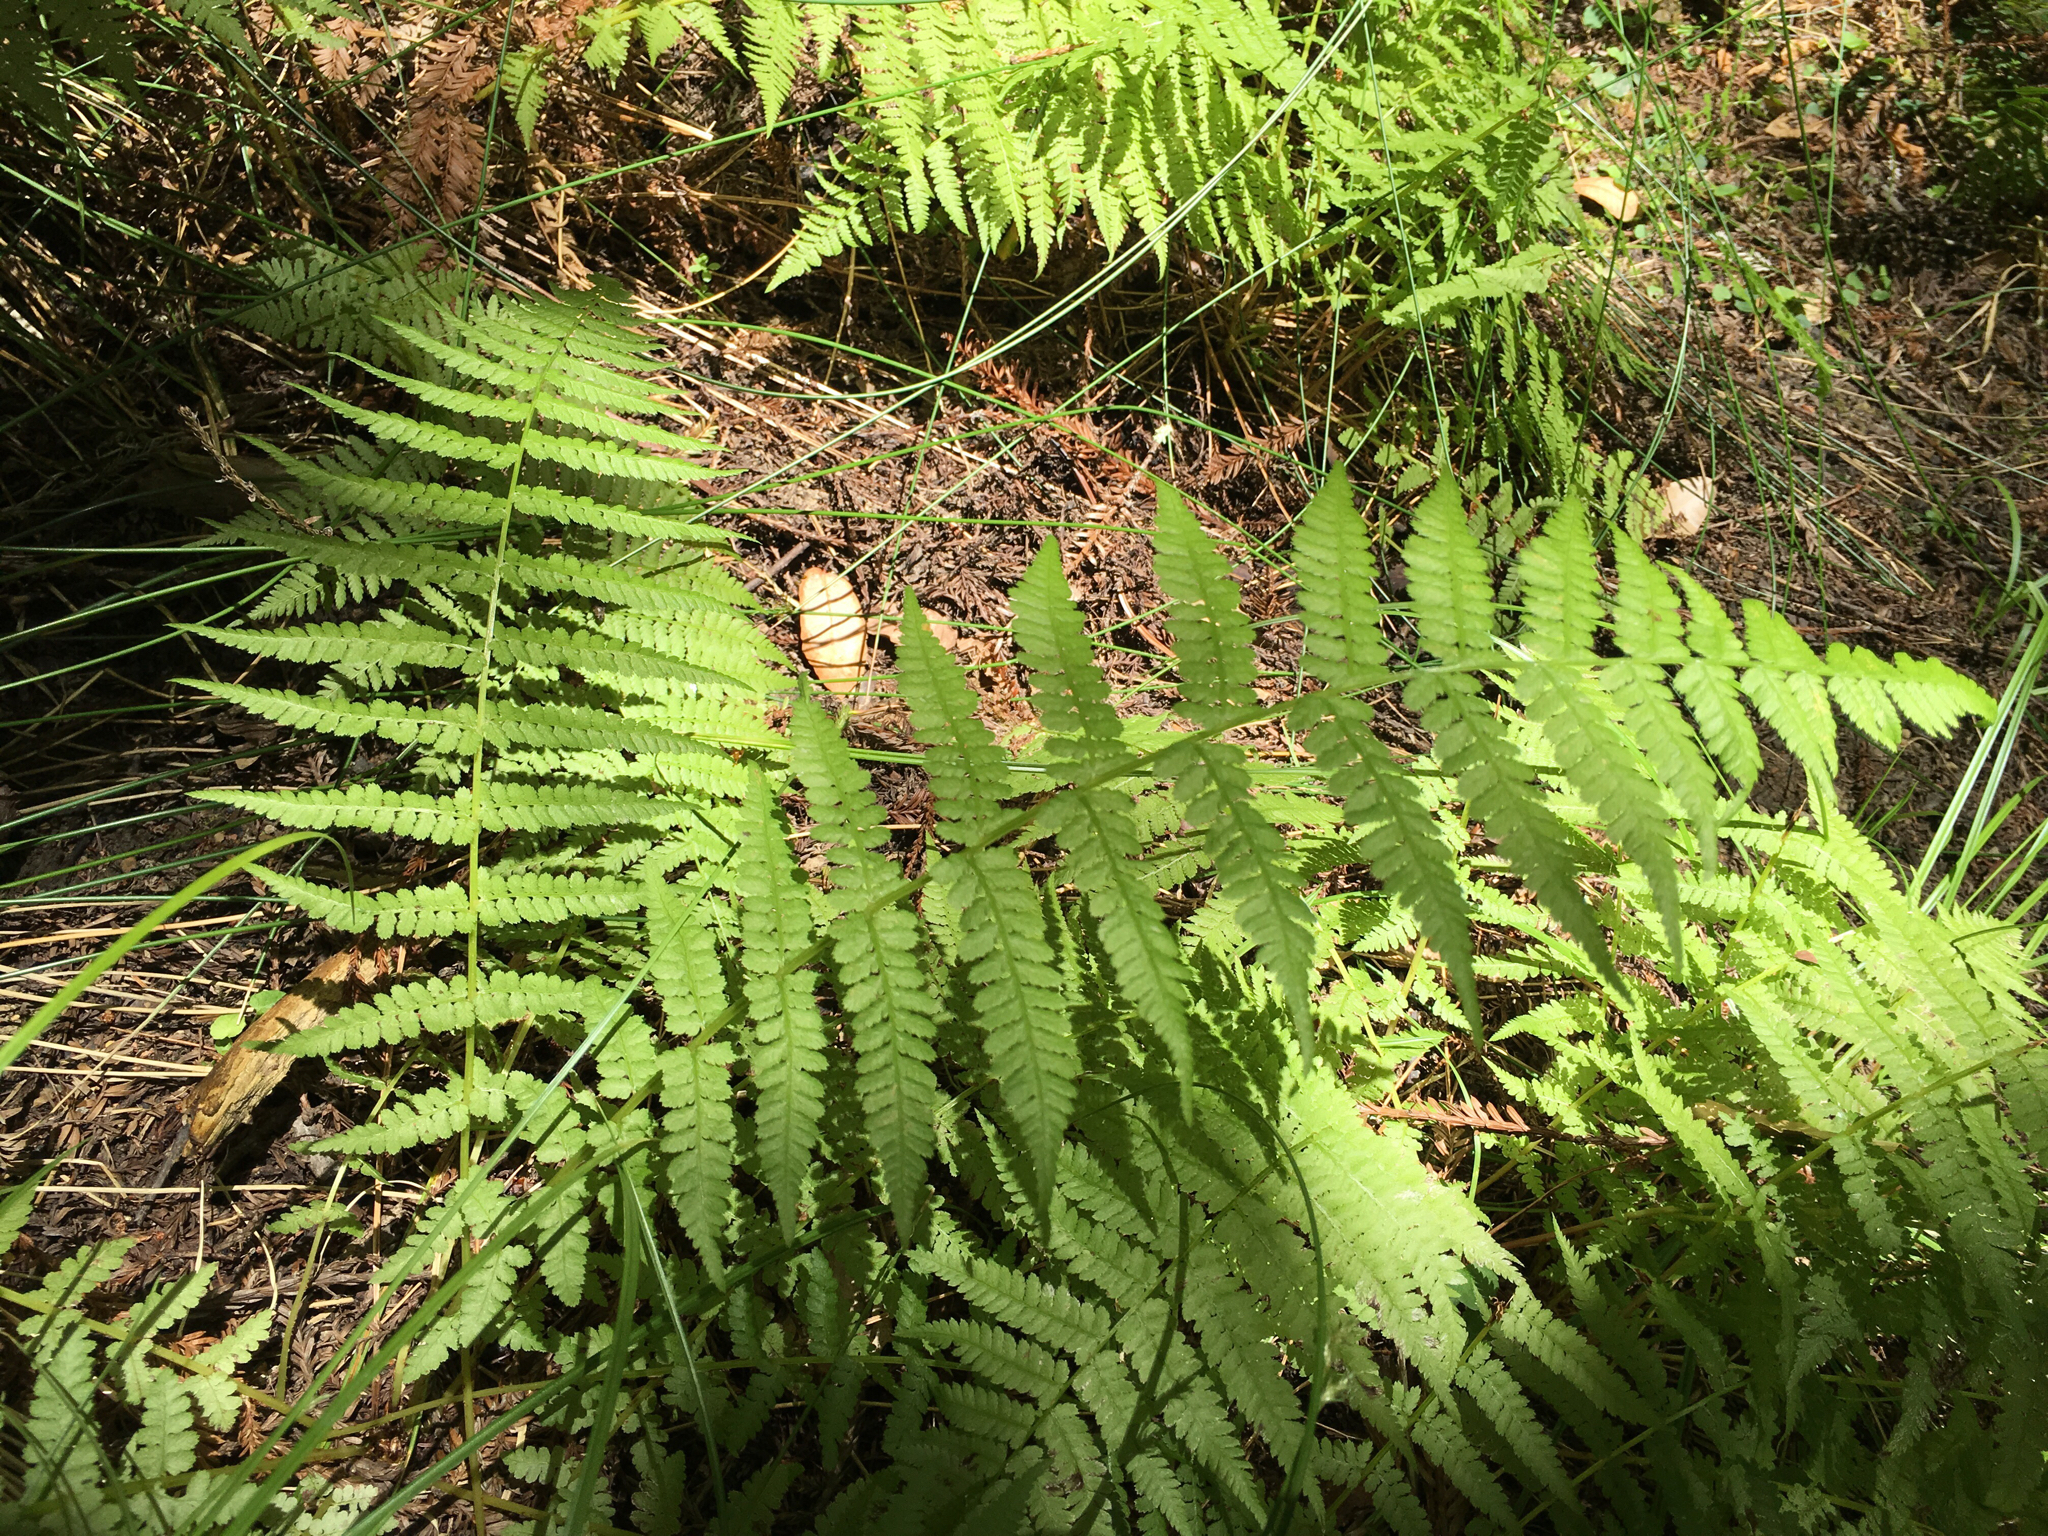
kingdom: Plantae
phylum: Tracheophyta
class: Polypodiopsida
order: Polypodiales
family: Athyriaceae
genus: Athyrium
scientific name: Athyrium filix-femina
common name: Lady fern
